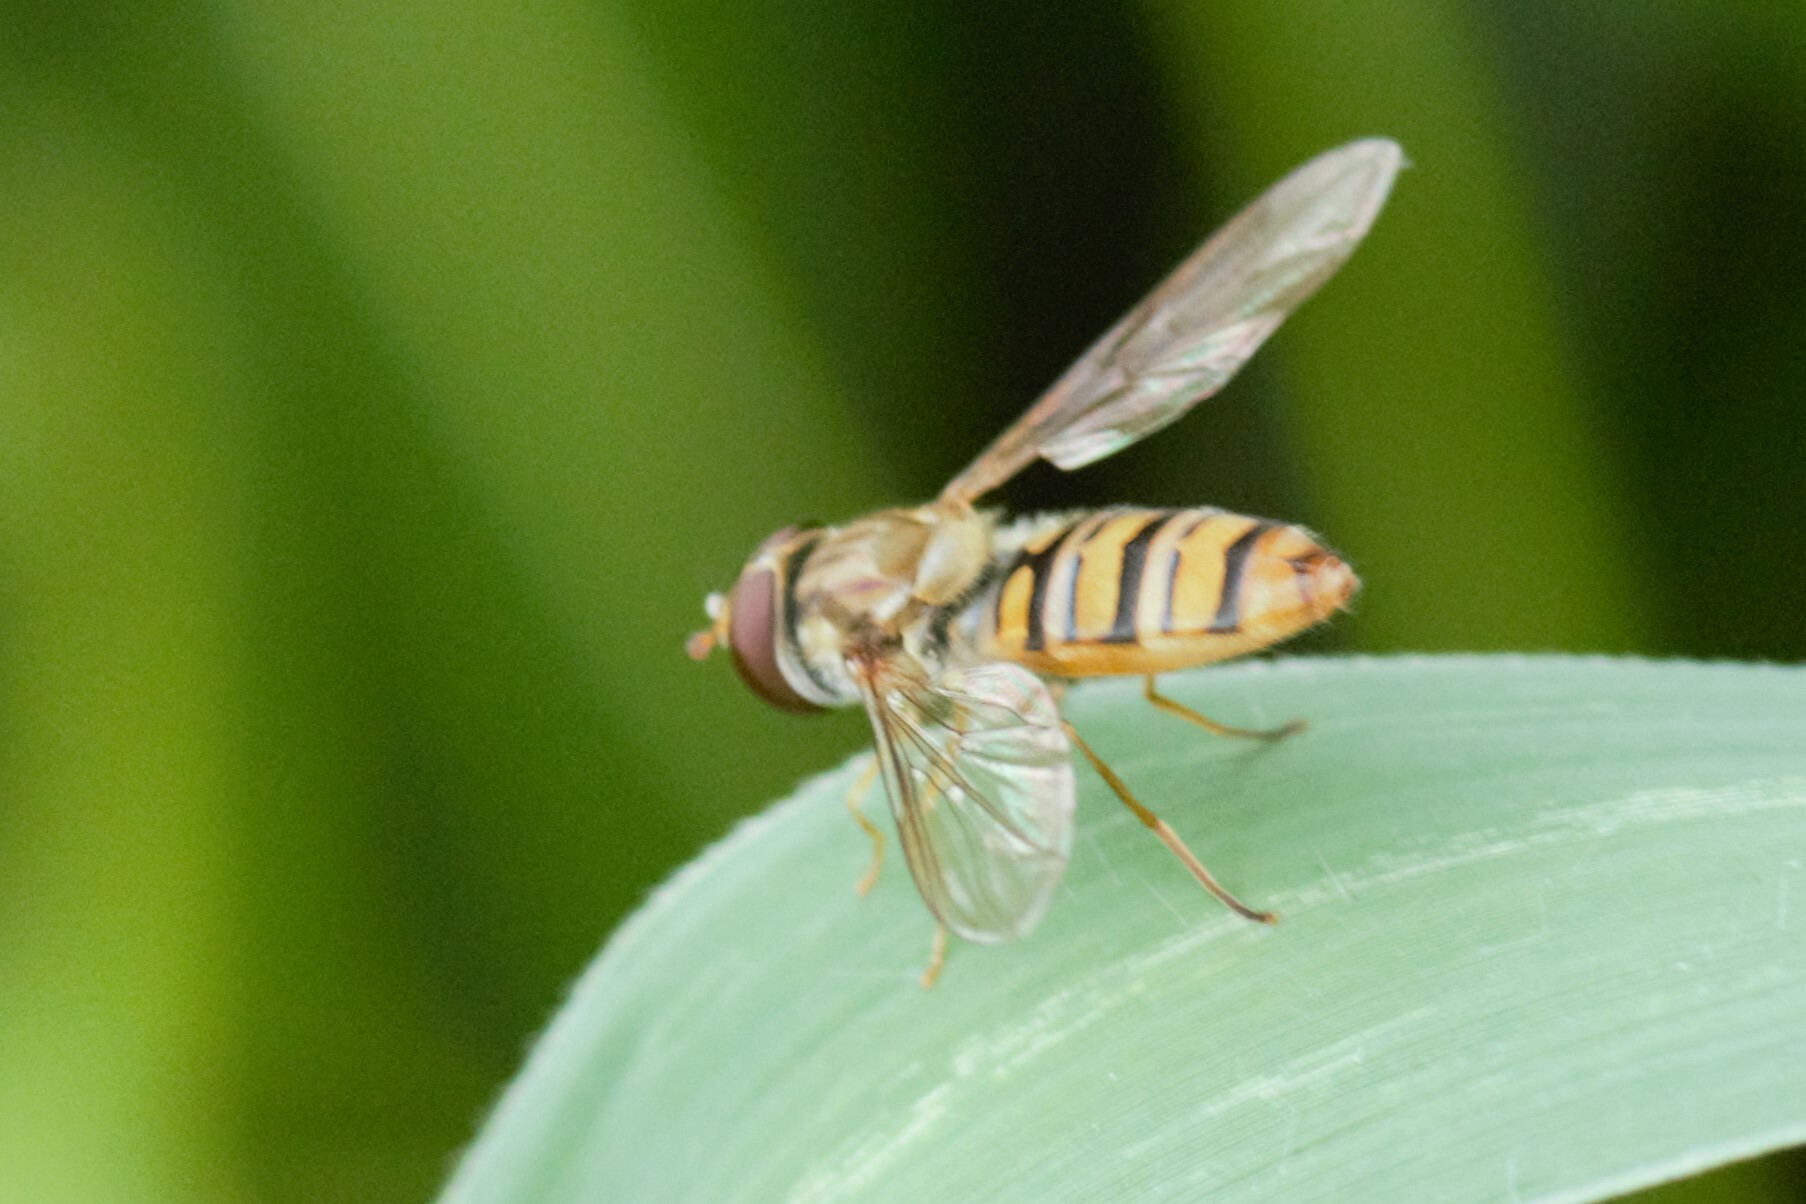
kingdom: Animalia
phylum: Arthropoda
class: Insecta
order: Diptera
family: Syrphidae
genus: Episyrphus
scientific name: Episyrphus balteatus
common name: Marmalade hoverfly
